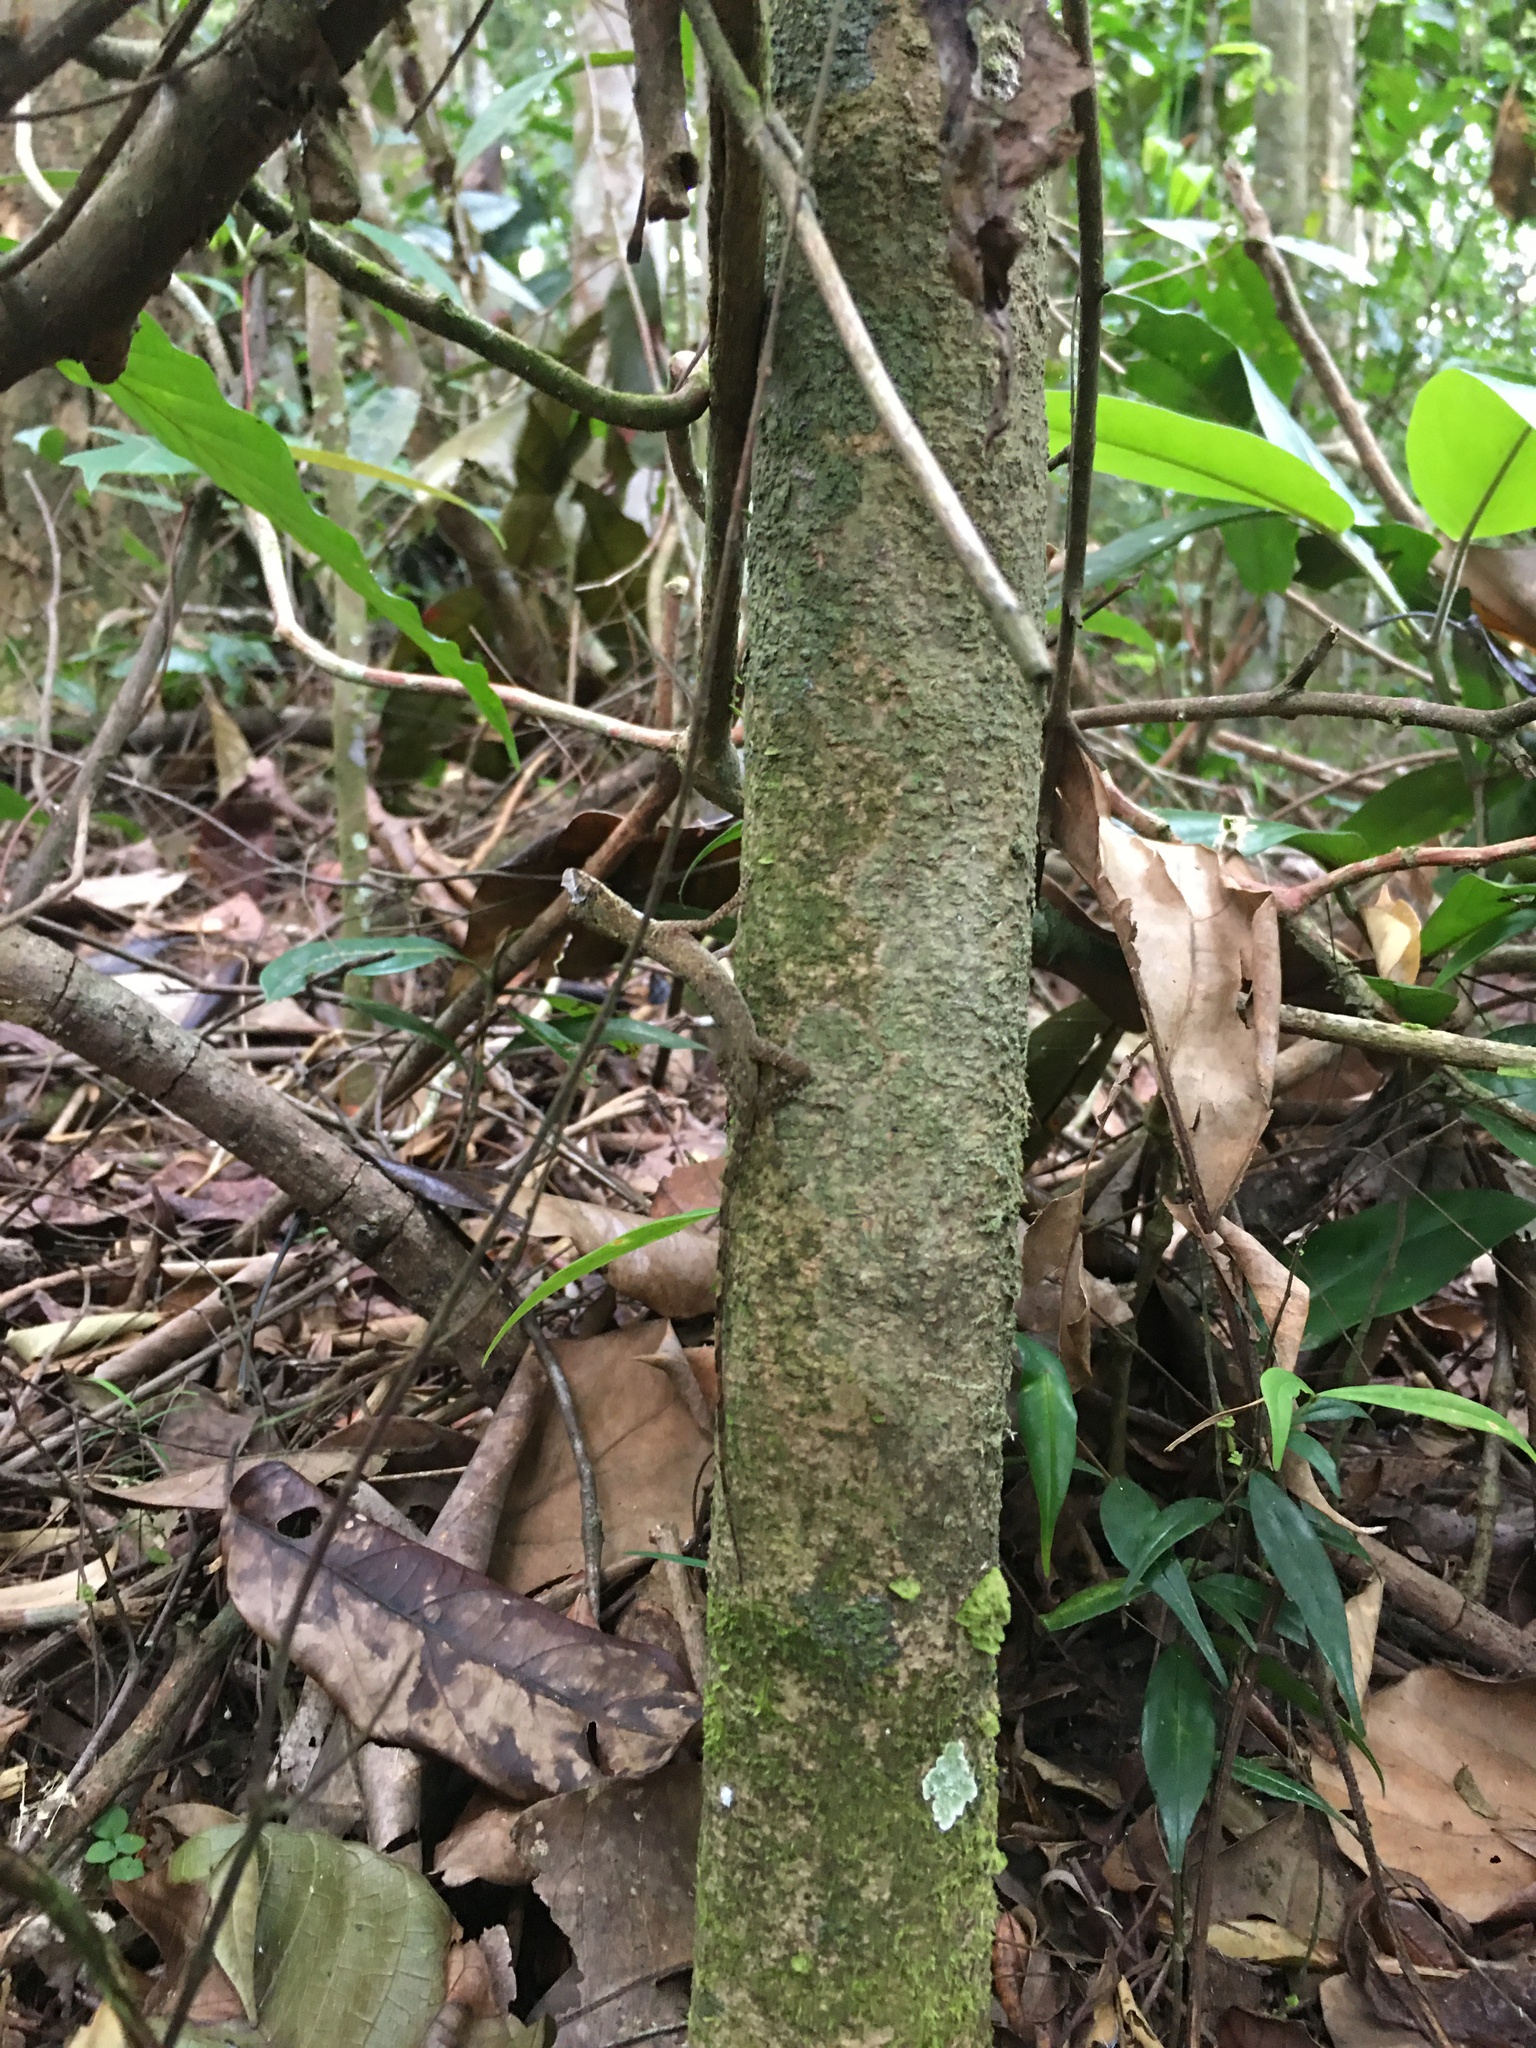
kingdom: Animalia
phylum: Chordata
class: Squamata
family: Dactyloidae
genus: Anolis
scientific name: Anolis fuscoauratus
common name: Brown-eared anole
